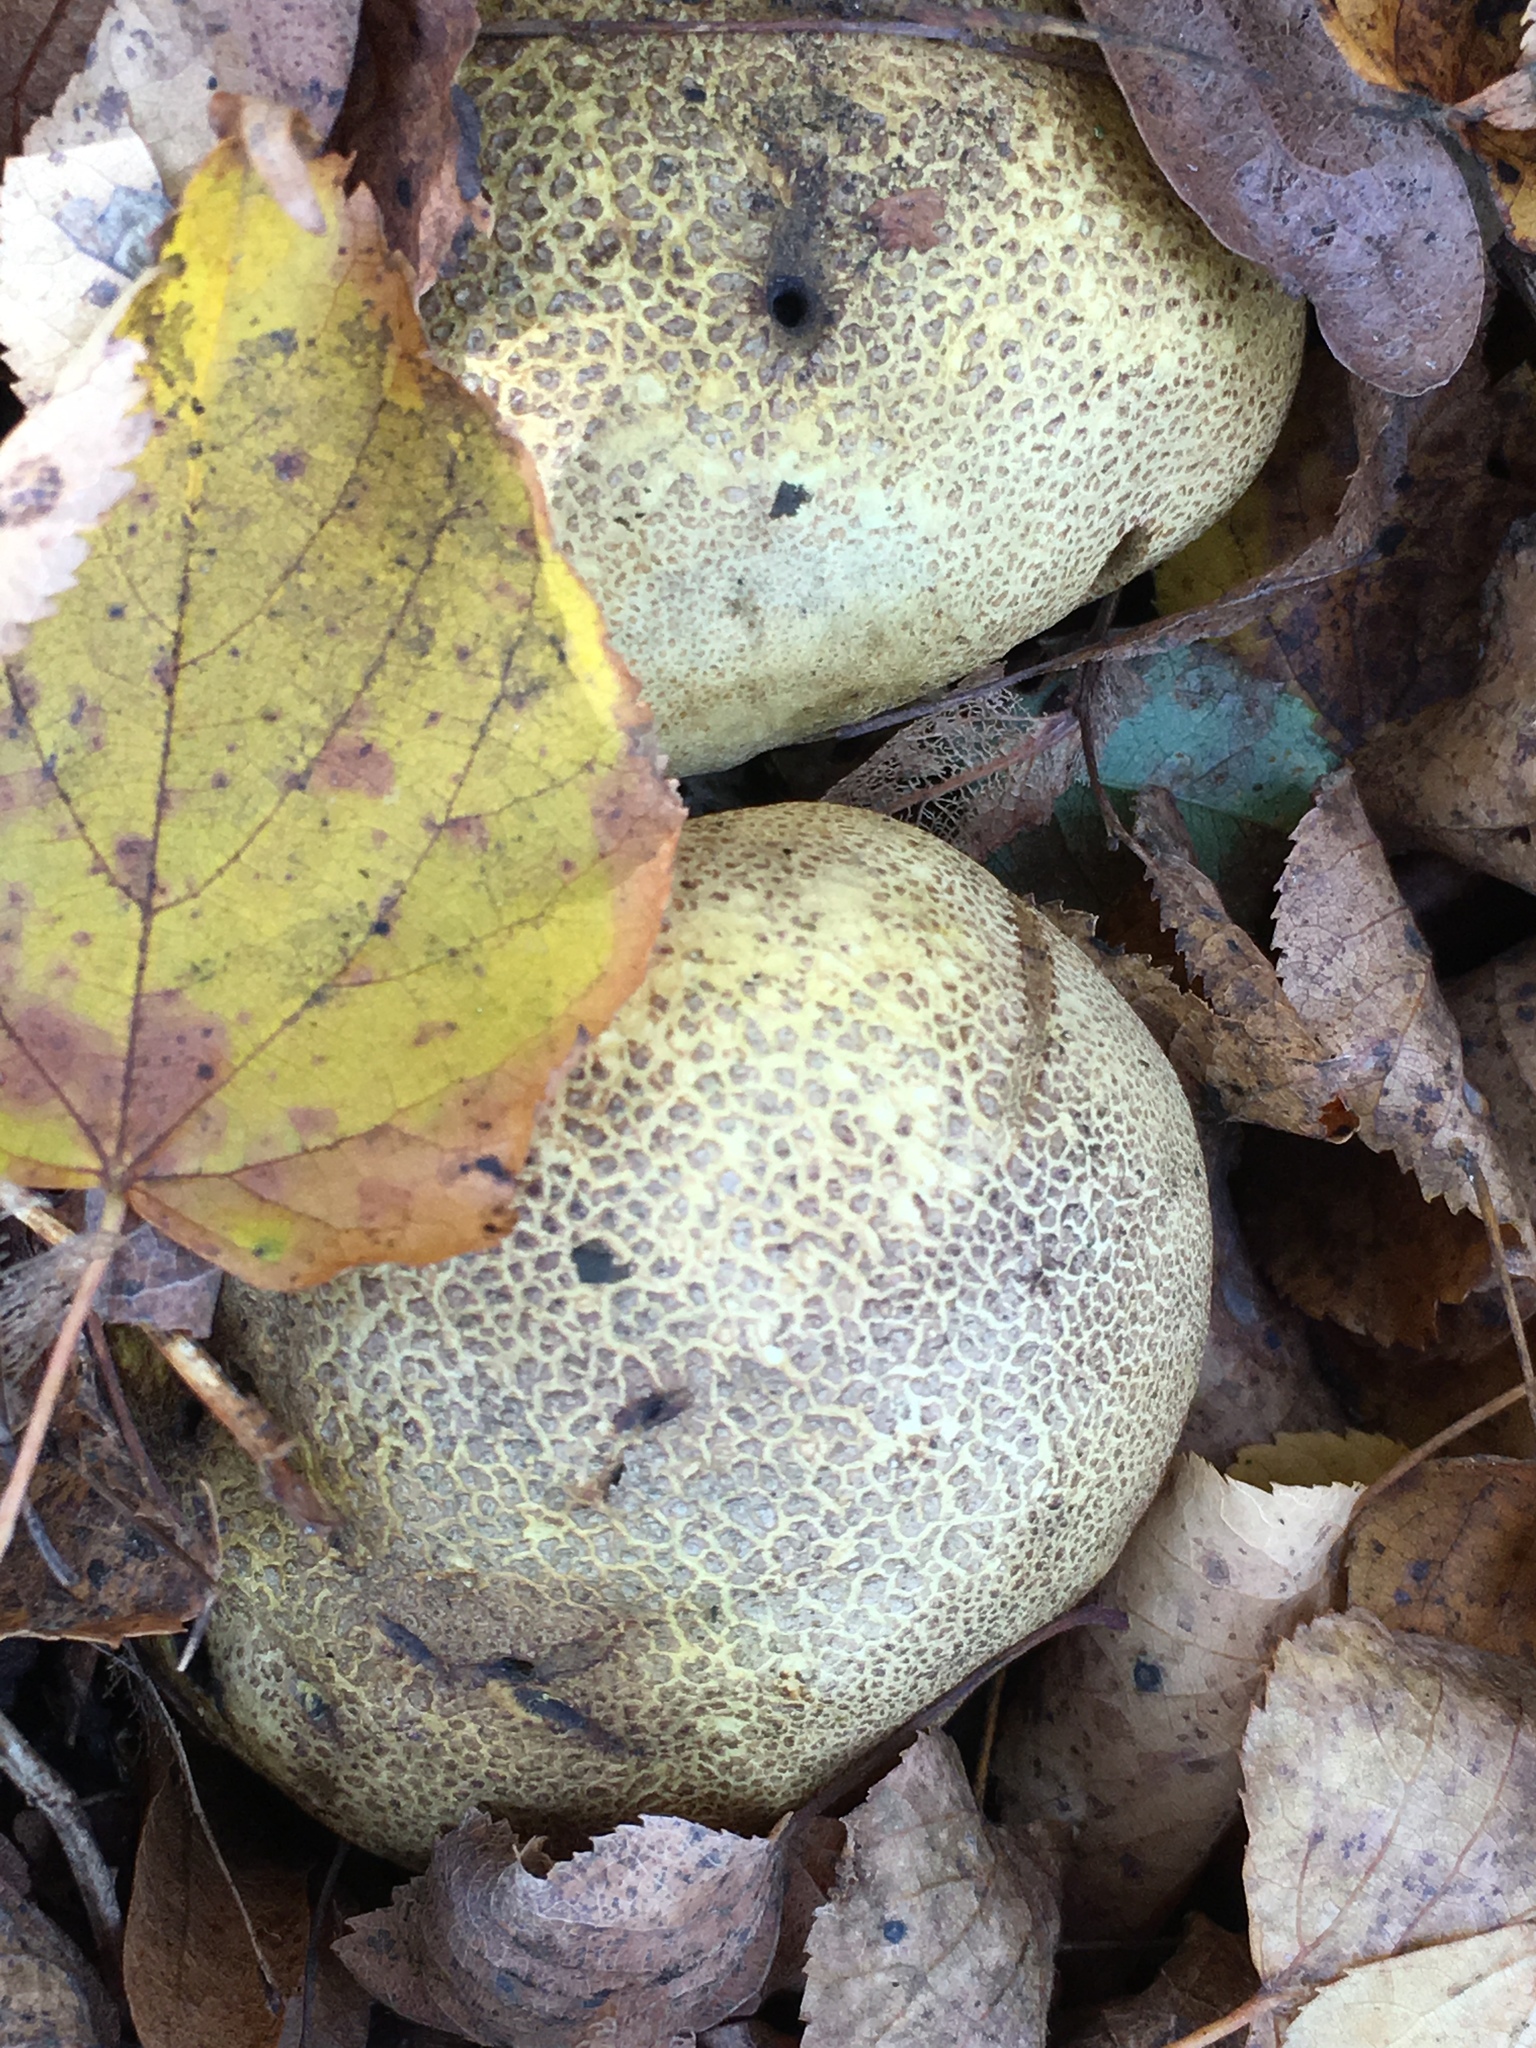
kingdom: Fungi
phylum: Basidiomycota
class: Agaricomycetes
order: Boletales
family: Sclerodermataceae
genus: Scleroderma
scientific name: Scleroderma citrinum
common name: Common earthball
